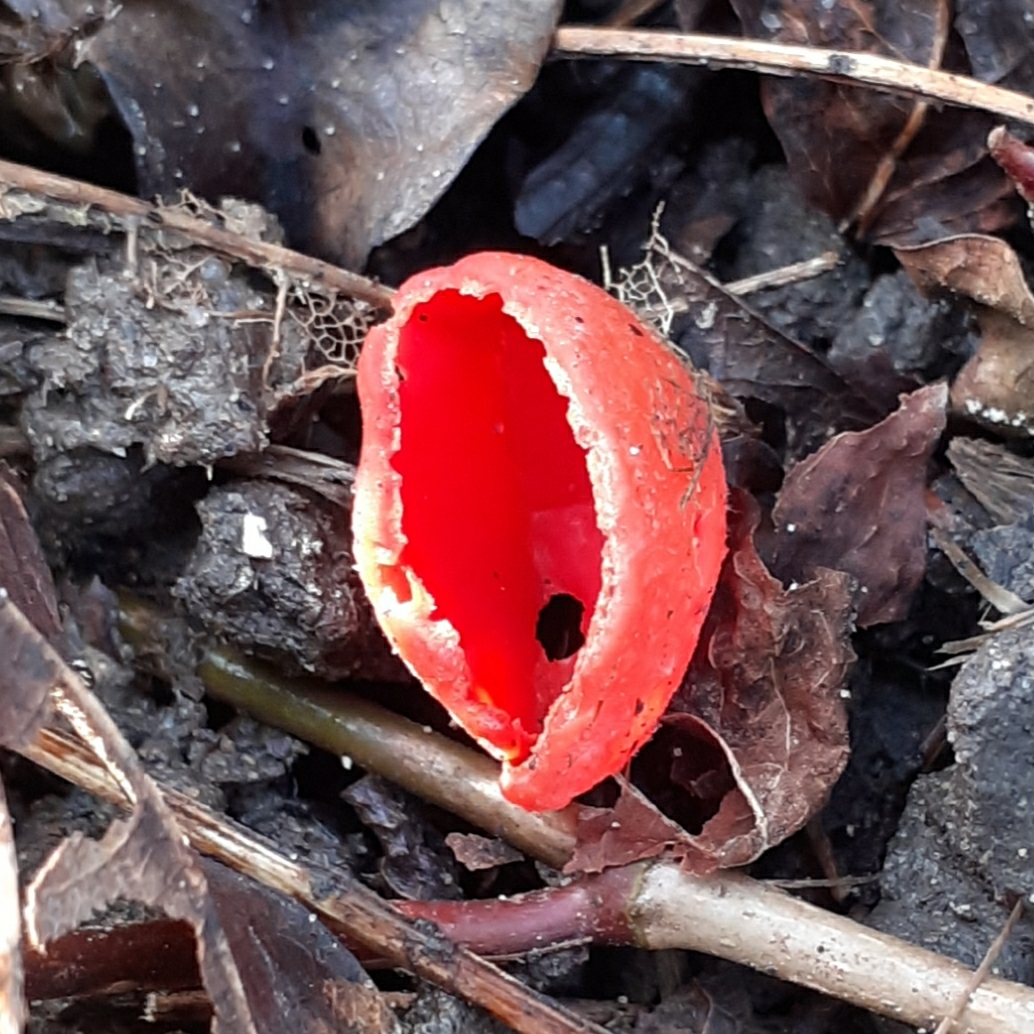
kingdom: Fungi
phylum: Ascomycota
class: Pezizomycetes
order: Pezizales
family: Sarcoscyphaceae
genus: Sarcoscypha
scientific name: Sarcoscypha
